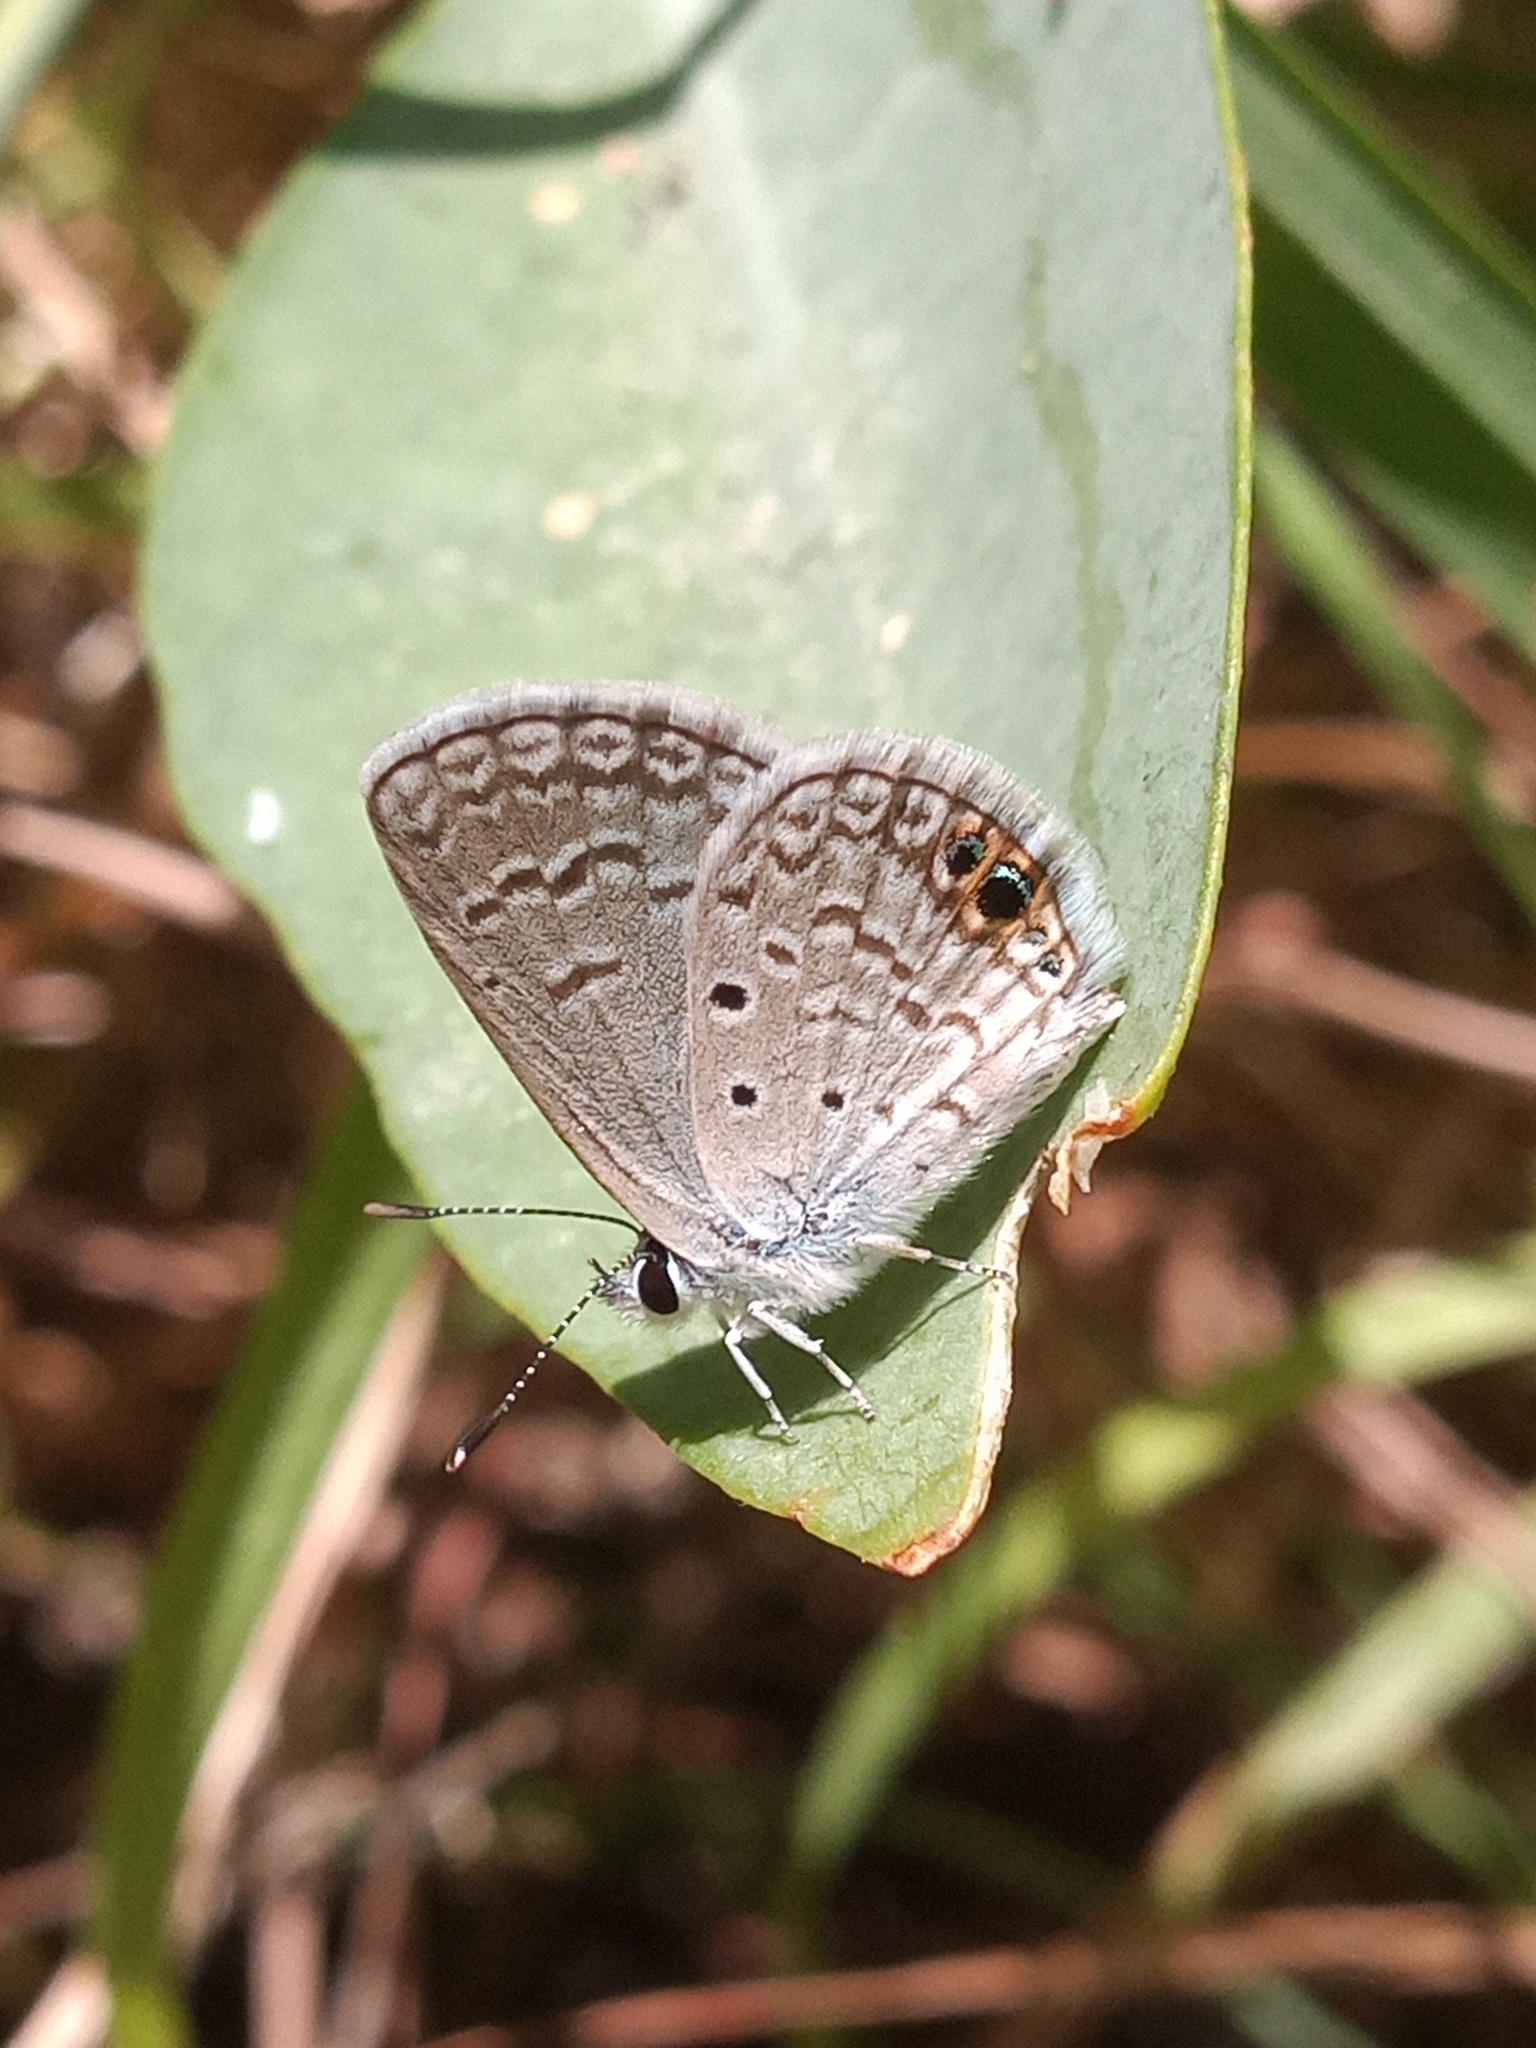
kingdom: Animalia
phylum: Arthropoda
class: Insecta
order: Lepidoptera
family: Lycaenidae
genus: Hemiargus
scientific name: Hemiargus ceraunus
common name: Ceraunus blue
